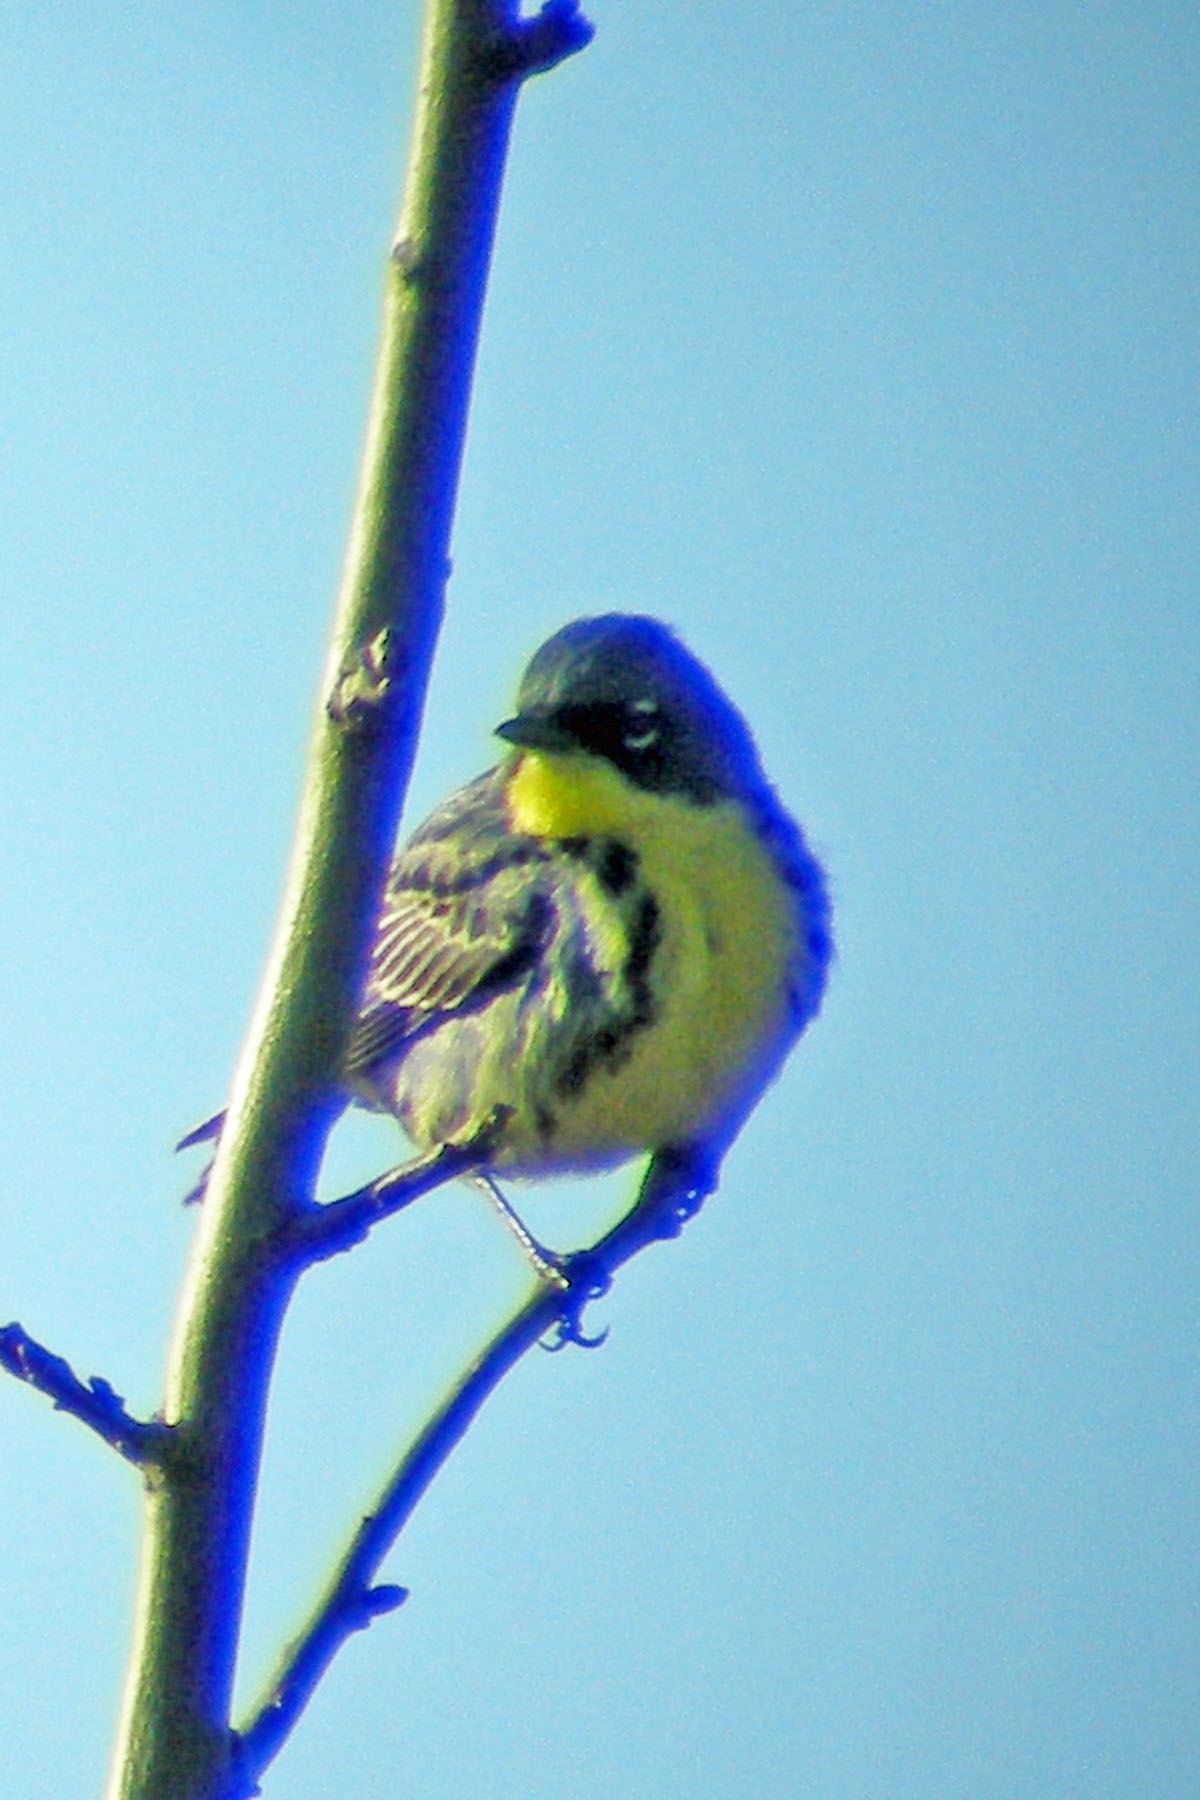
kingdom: Animalia
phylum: Chordata
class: Aves
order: Passeriformes
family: Parulidae
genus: Setophaga
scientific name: Setophaga kirtlandii
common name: Kirtland's warbler
